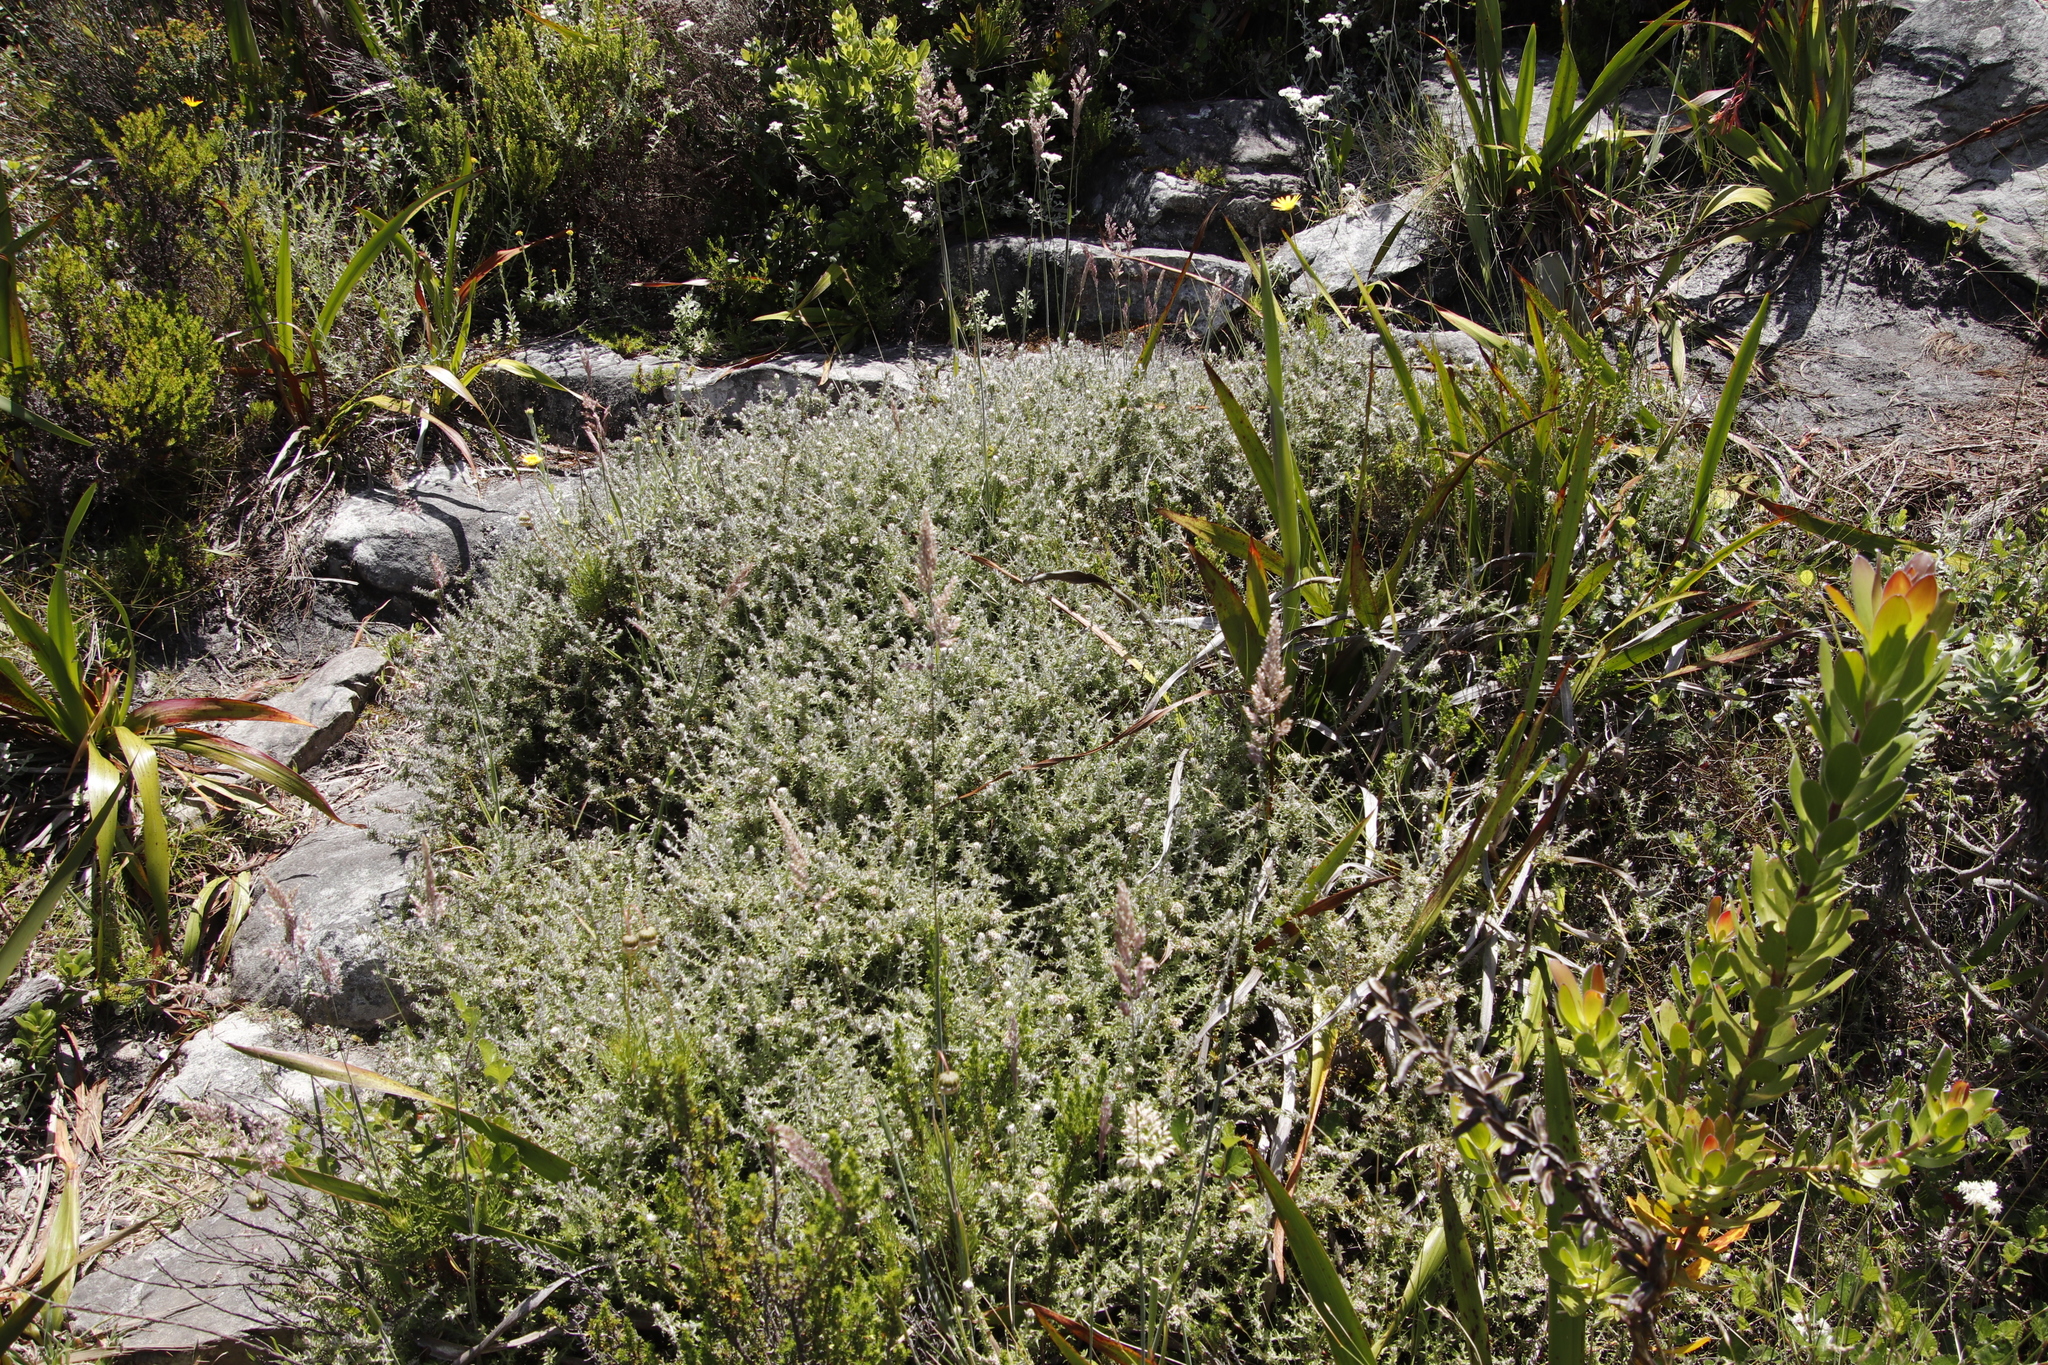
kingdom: Plantae
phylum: Tracheophyta
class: Magnoliopsida
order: Asterales
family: Asteraceae
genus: Metalasia
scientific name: Metalasia divergens
